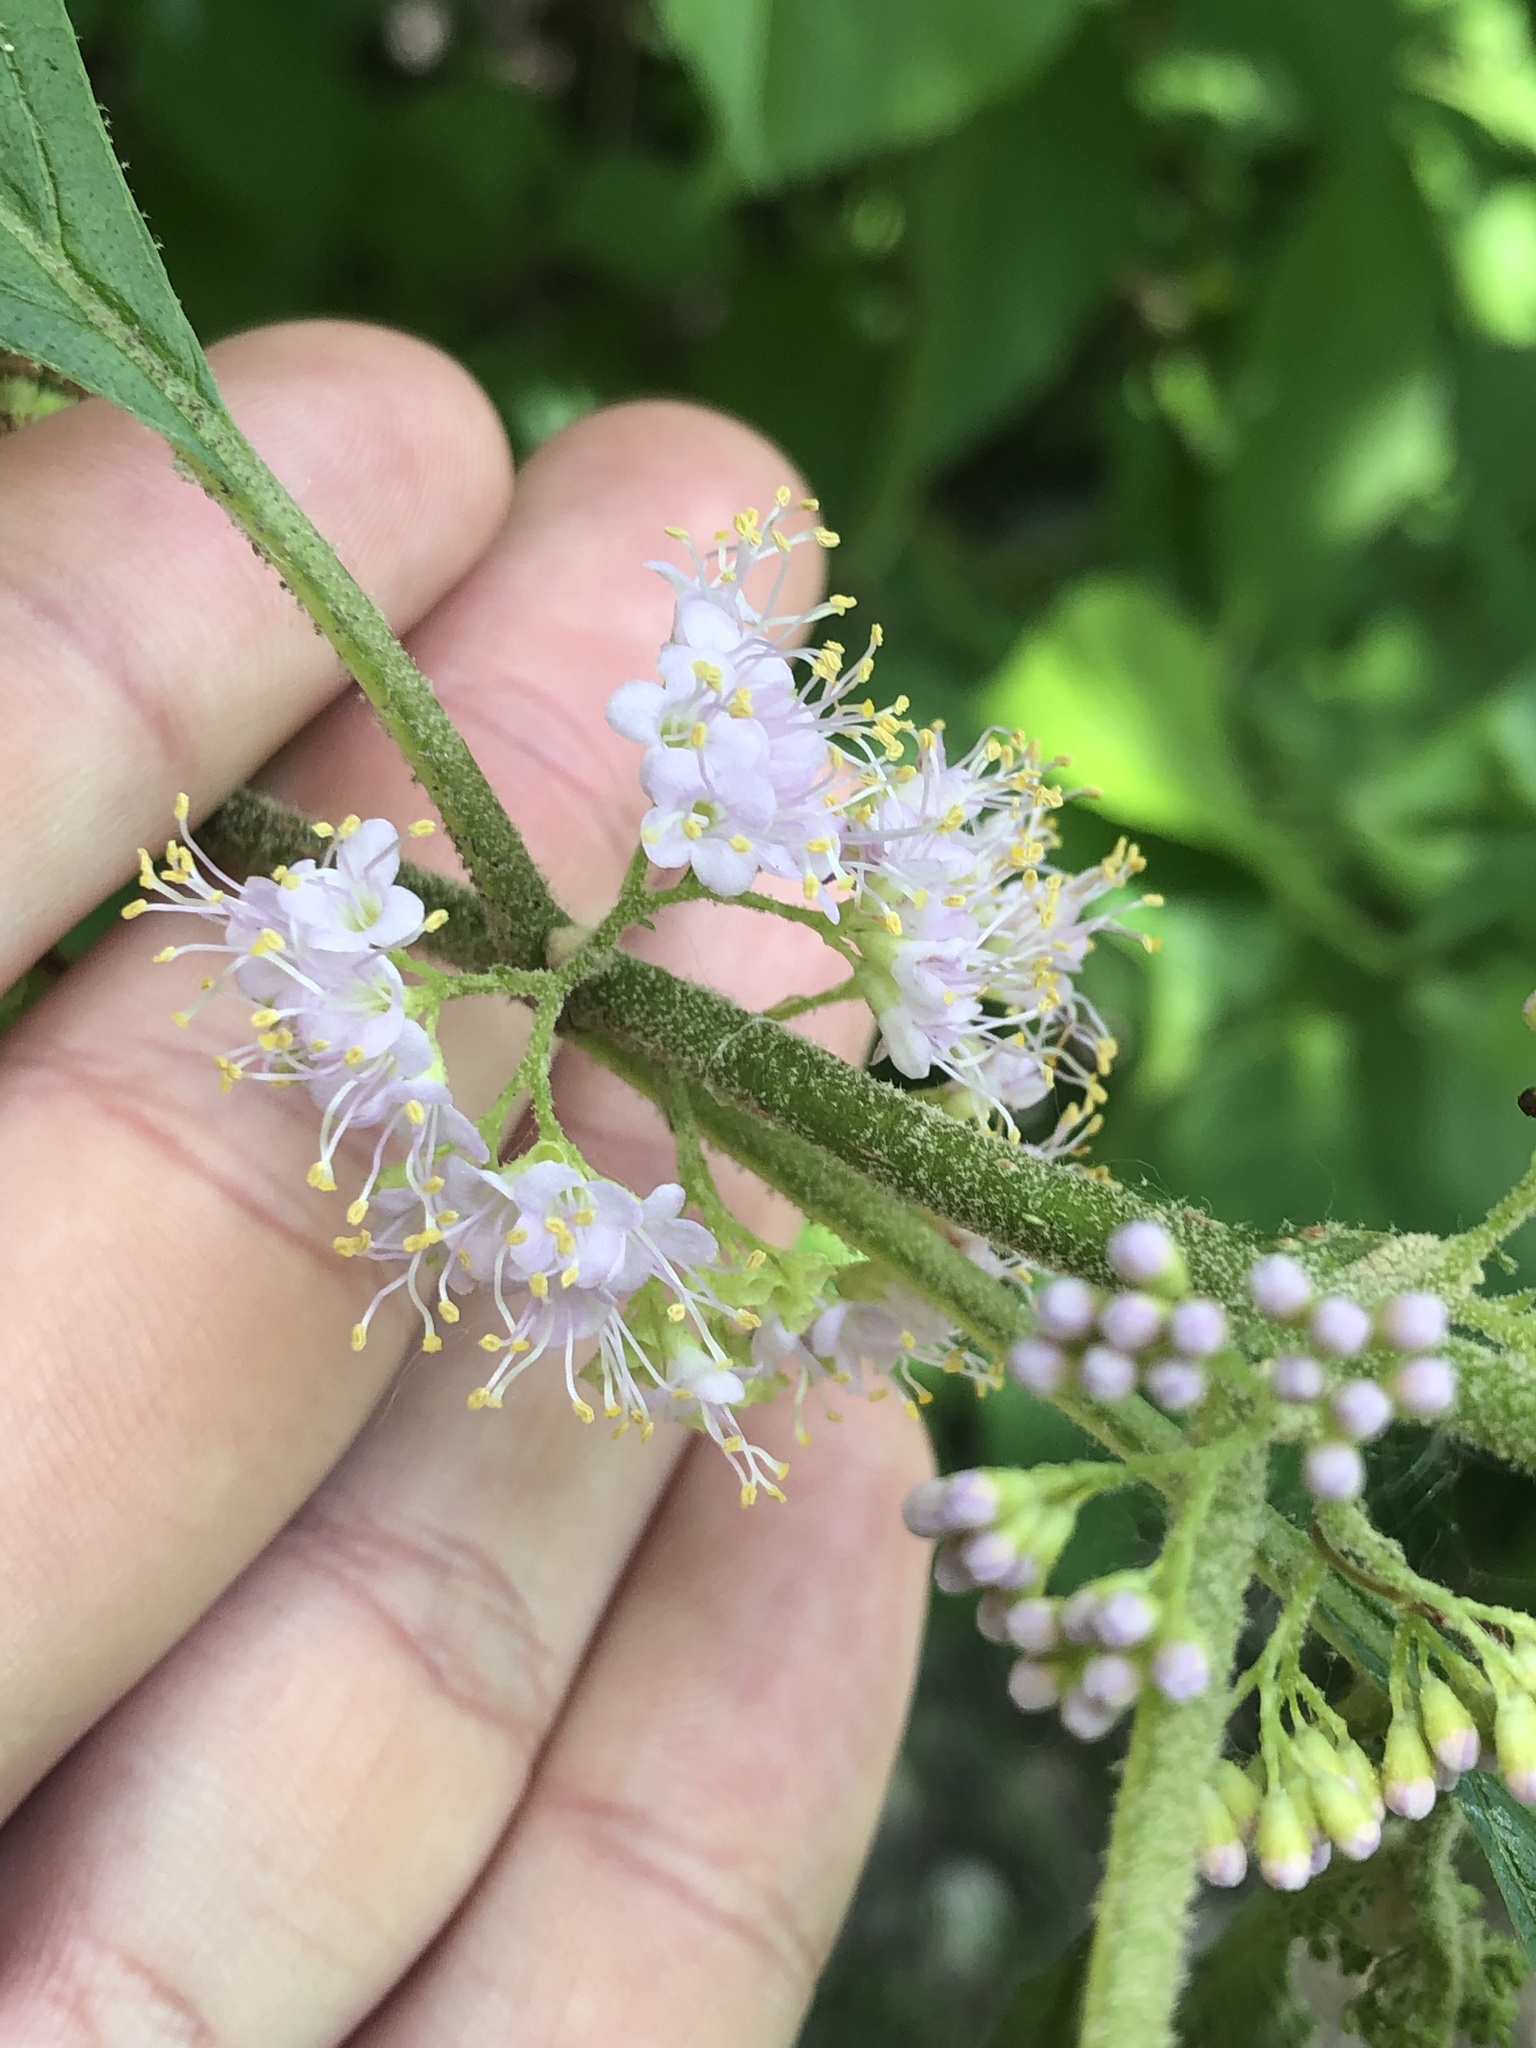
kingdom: Plantae
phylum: Tracheophyta
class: Magnoliopsida
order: Lamiales
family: Lamiaceae
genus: Callicarpa
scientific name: Callicarpa americana
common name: American beautyberry
